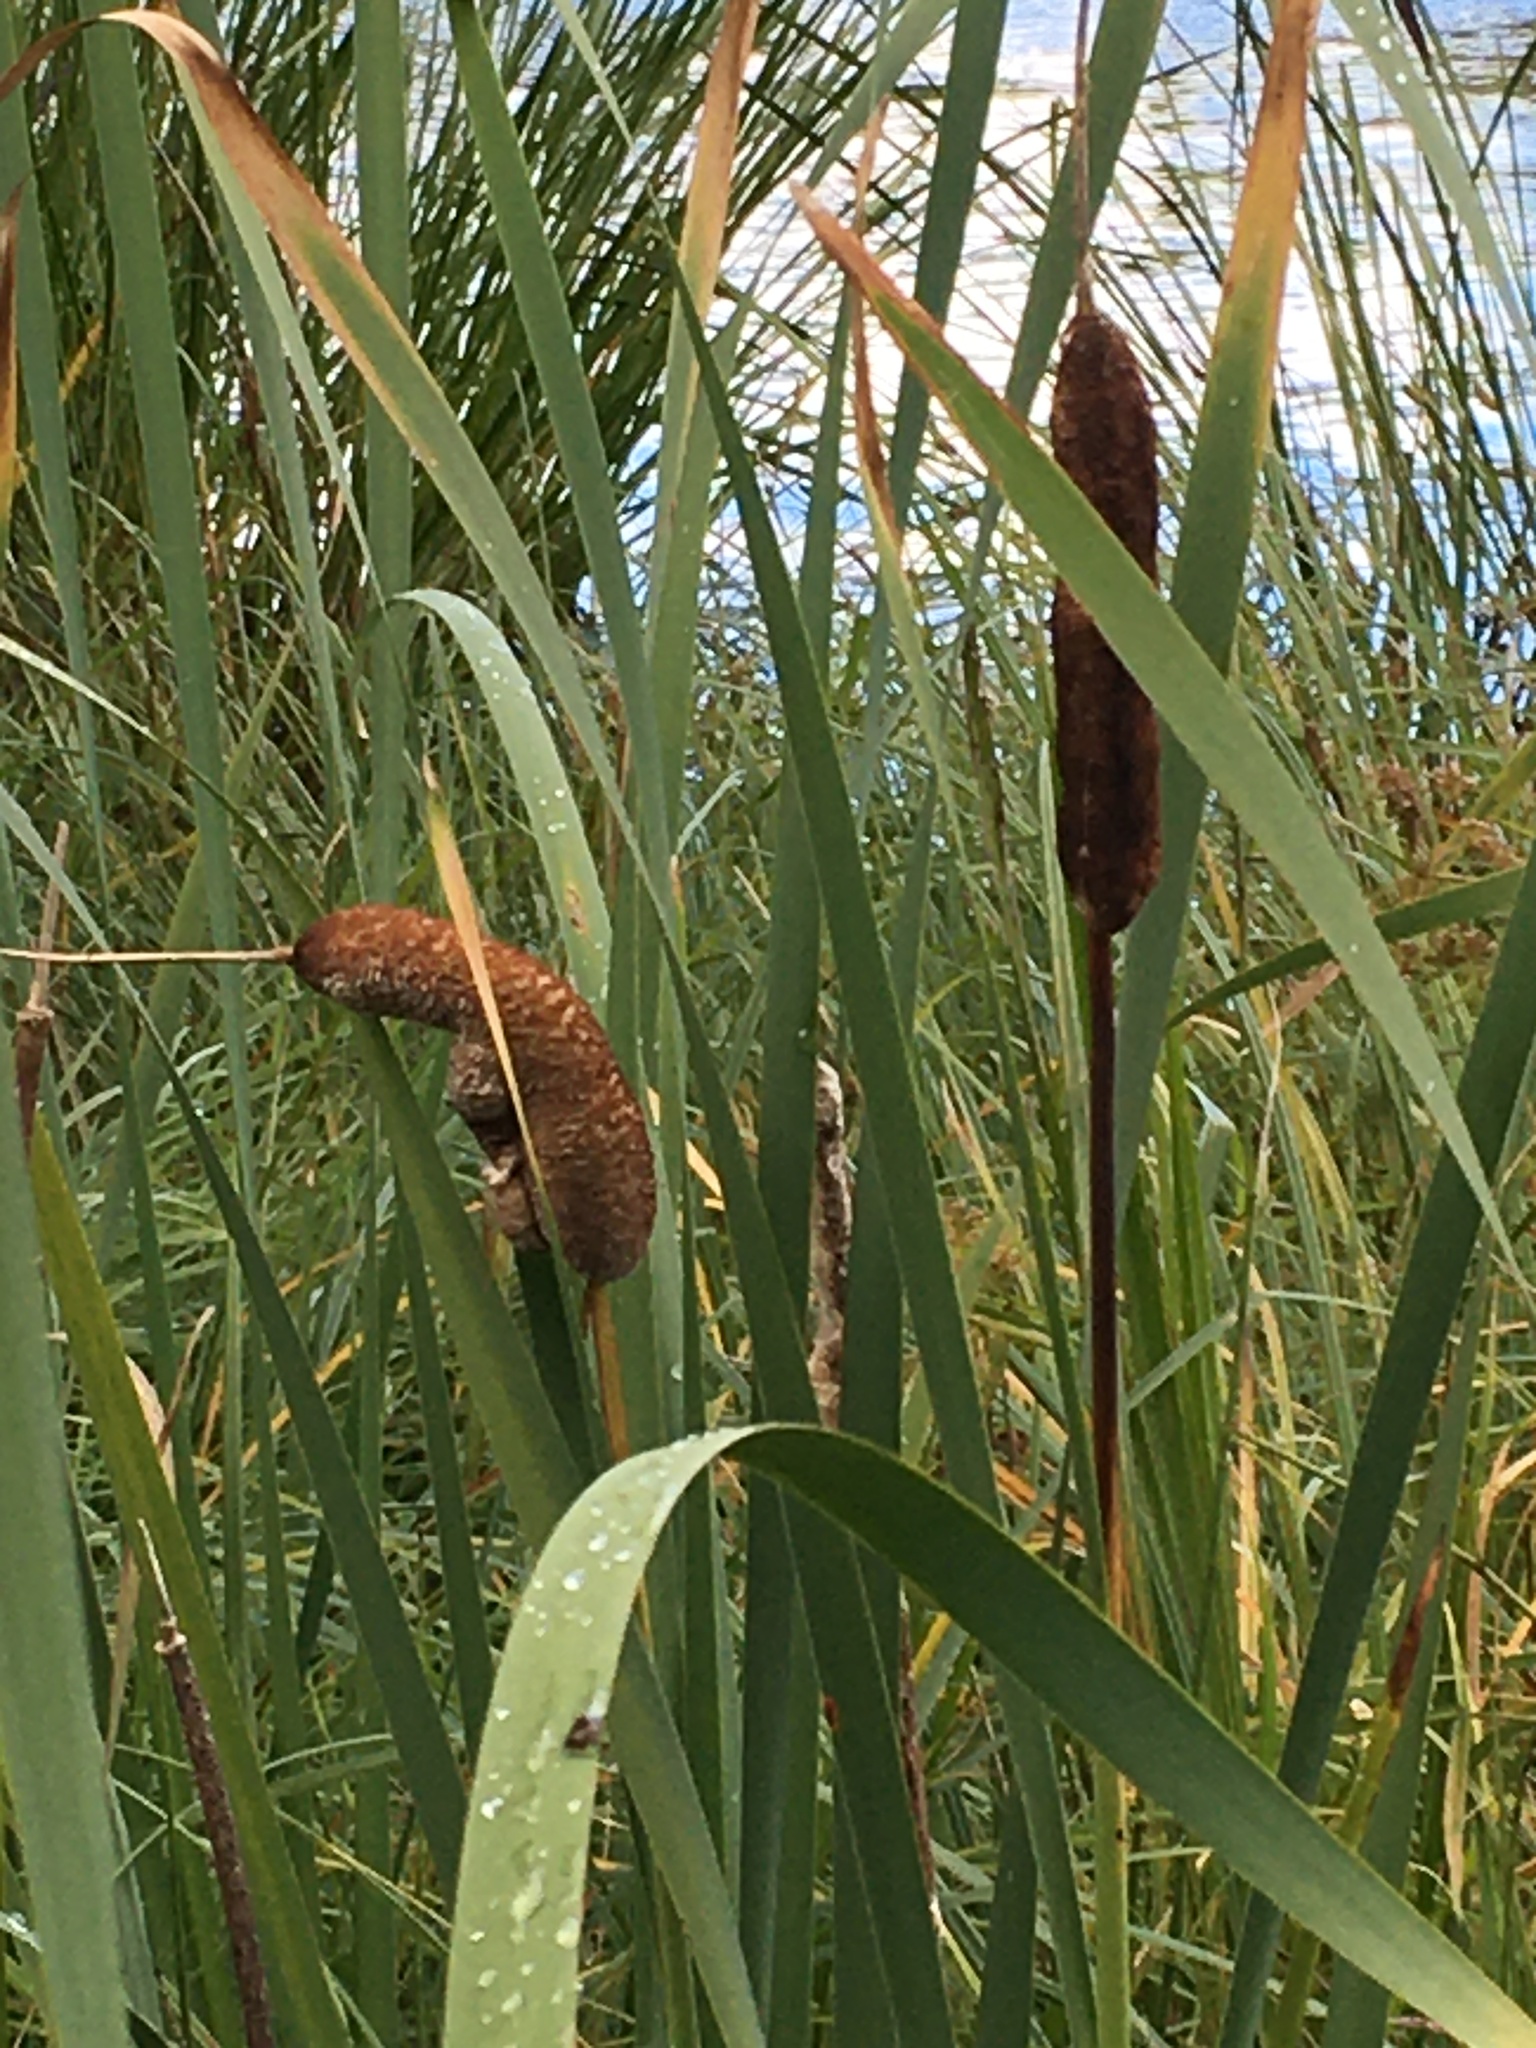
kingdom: Plantae
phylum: Tracheophyta
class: Liliopsida
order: Poales
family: Typhaceae
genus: Typha
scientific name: Typha latifolia
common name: Broadleaf cattail
